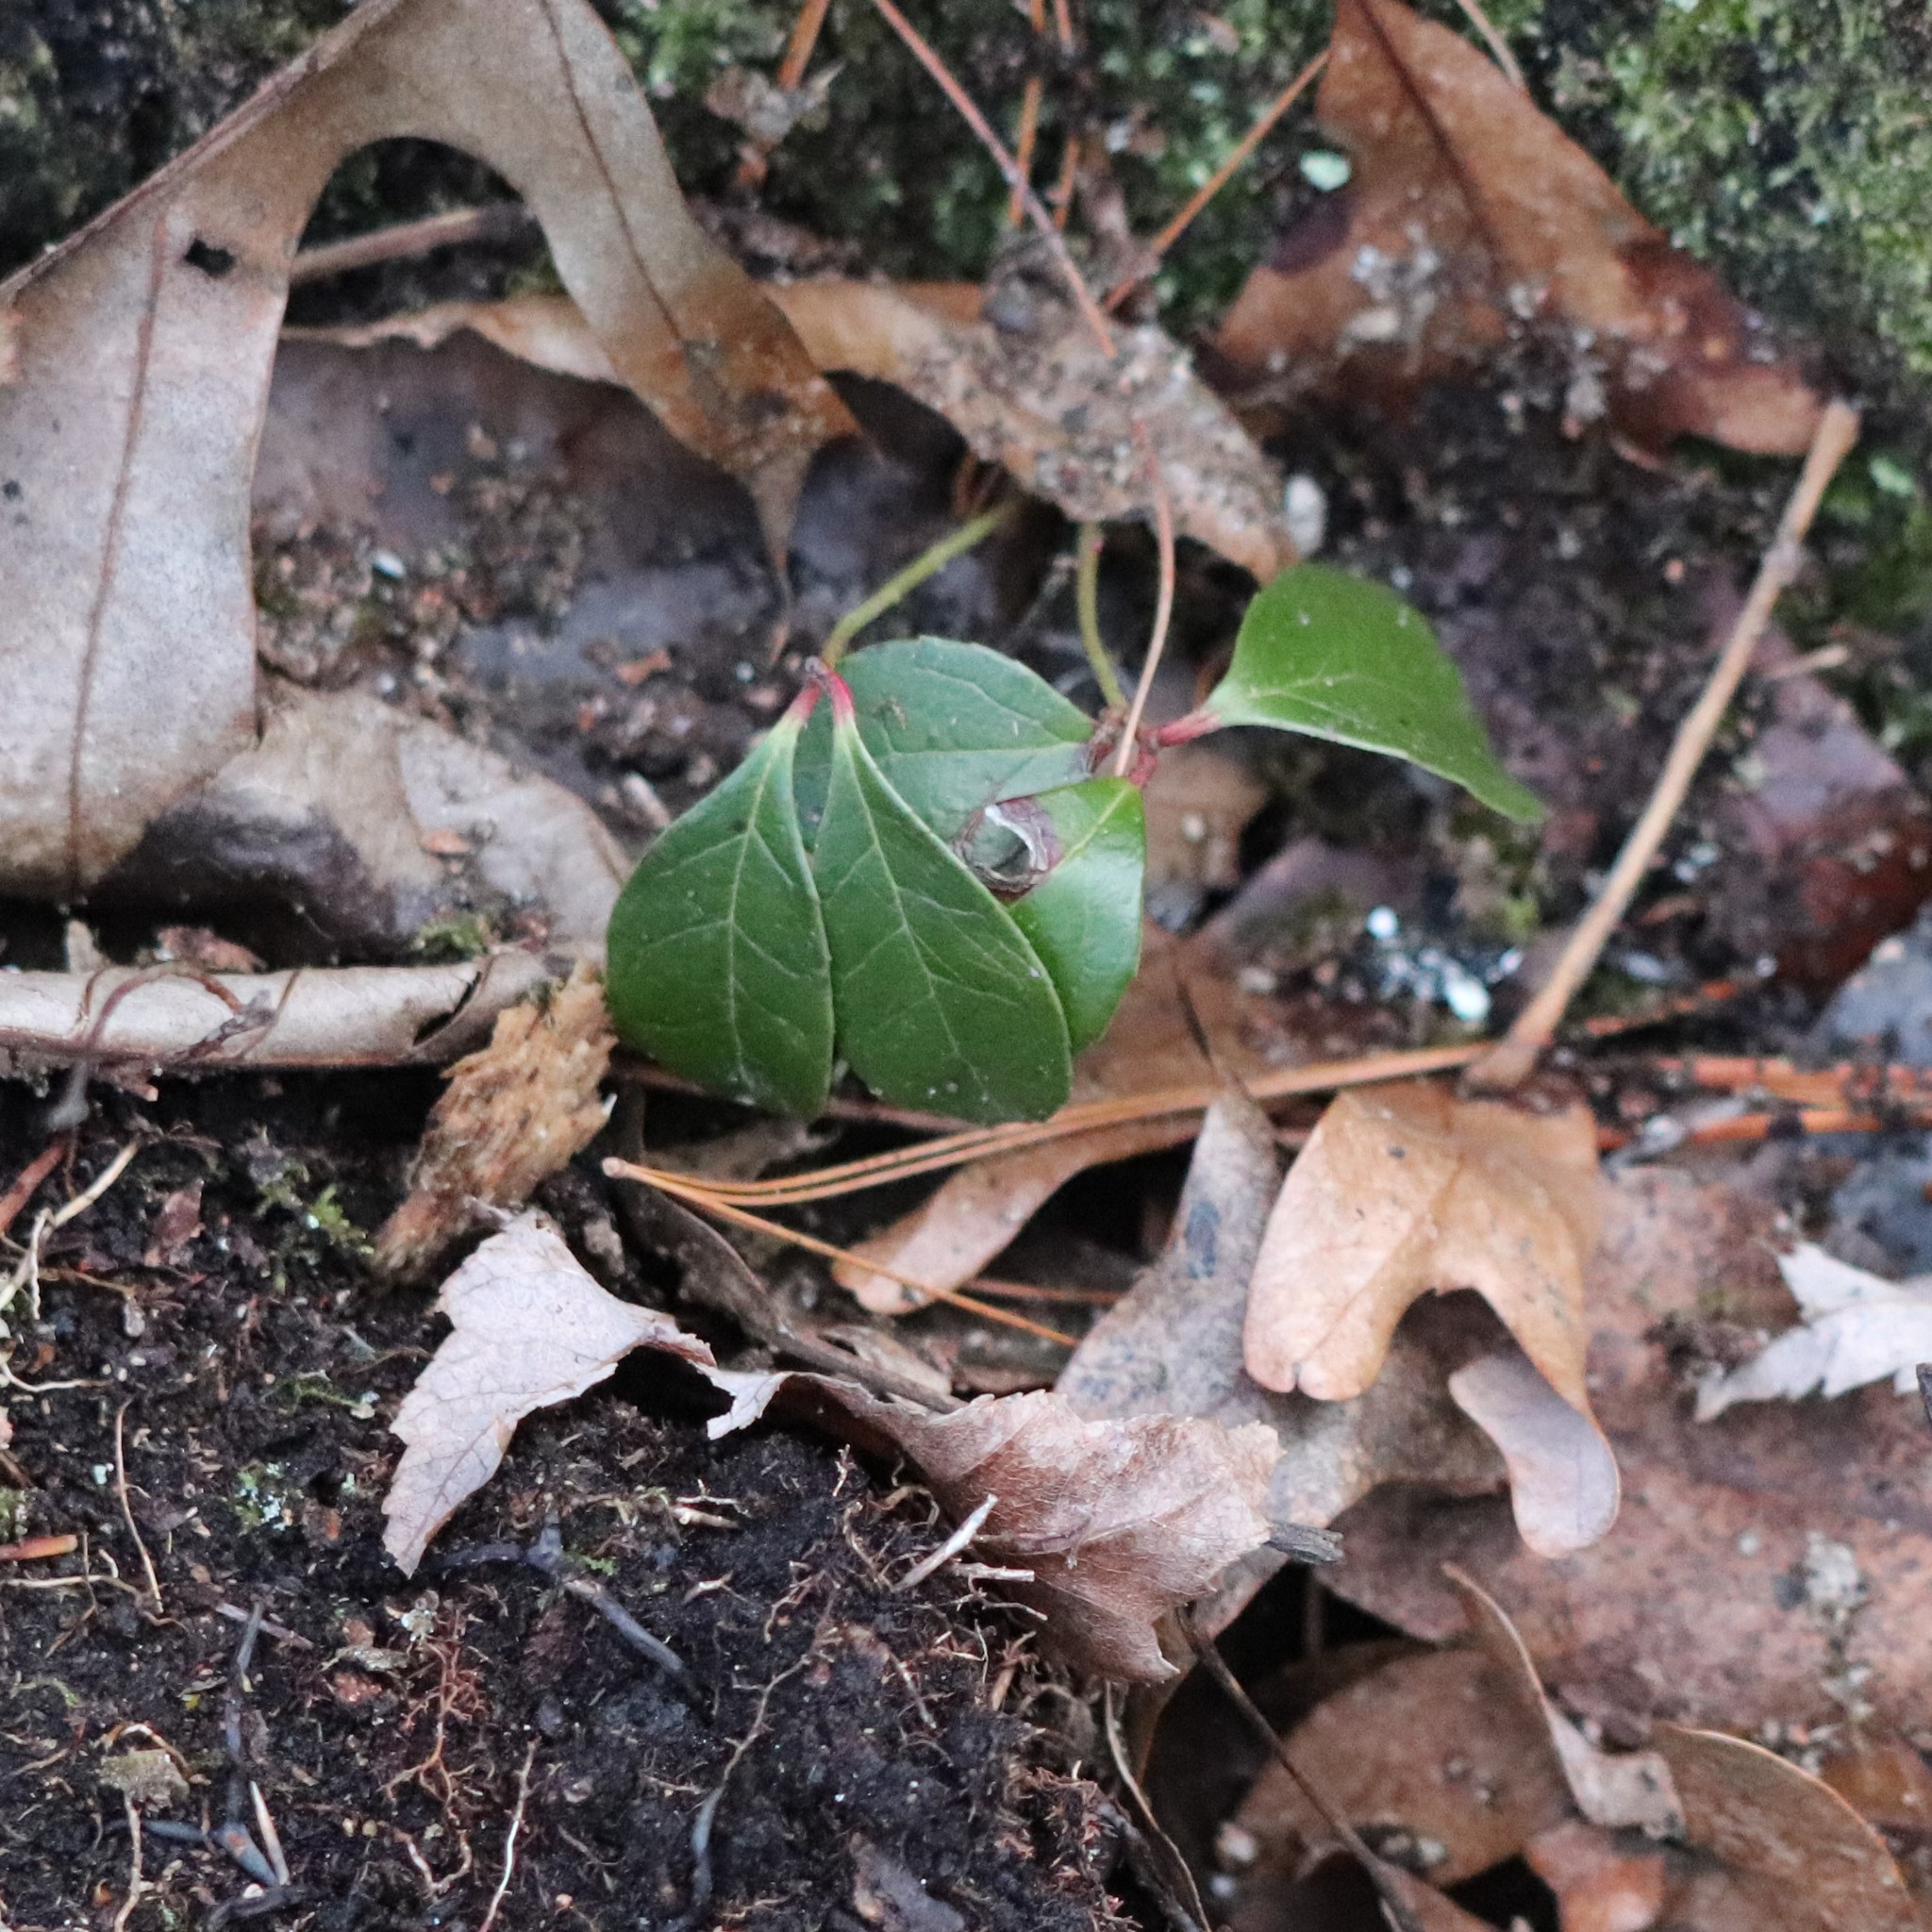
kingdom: Plantae
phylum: Tracheophyta
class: Magnoliopsida
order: Ericales
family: Ericaceae
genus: Gaultheria
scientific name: Gaultheria procumbens
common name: Checkerberry
